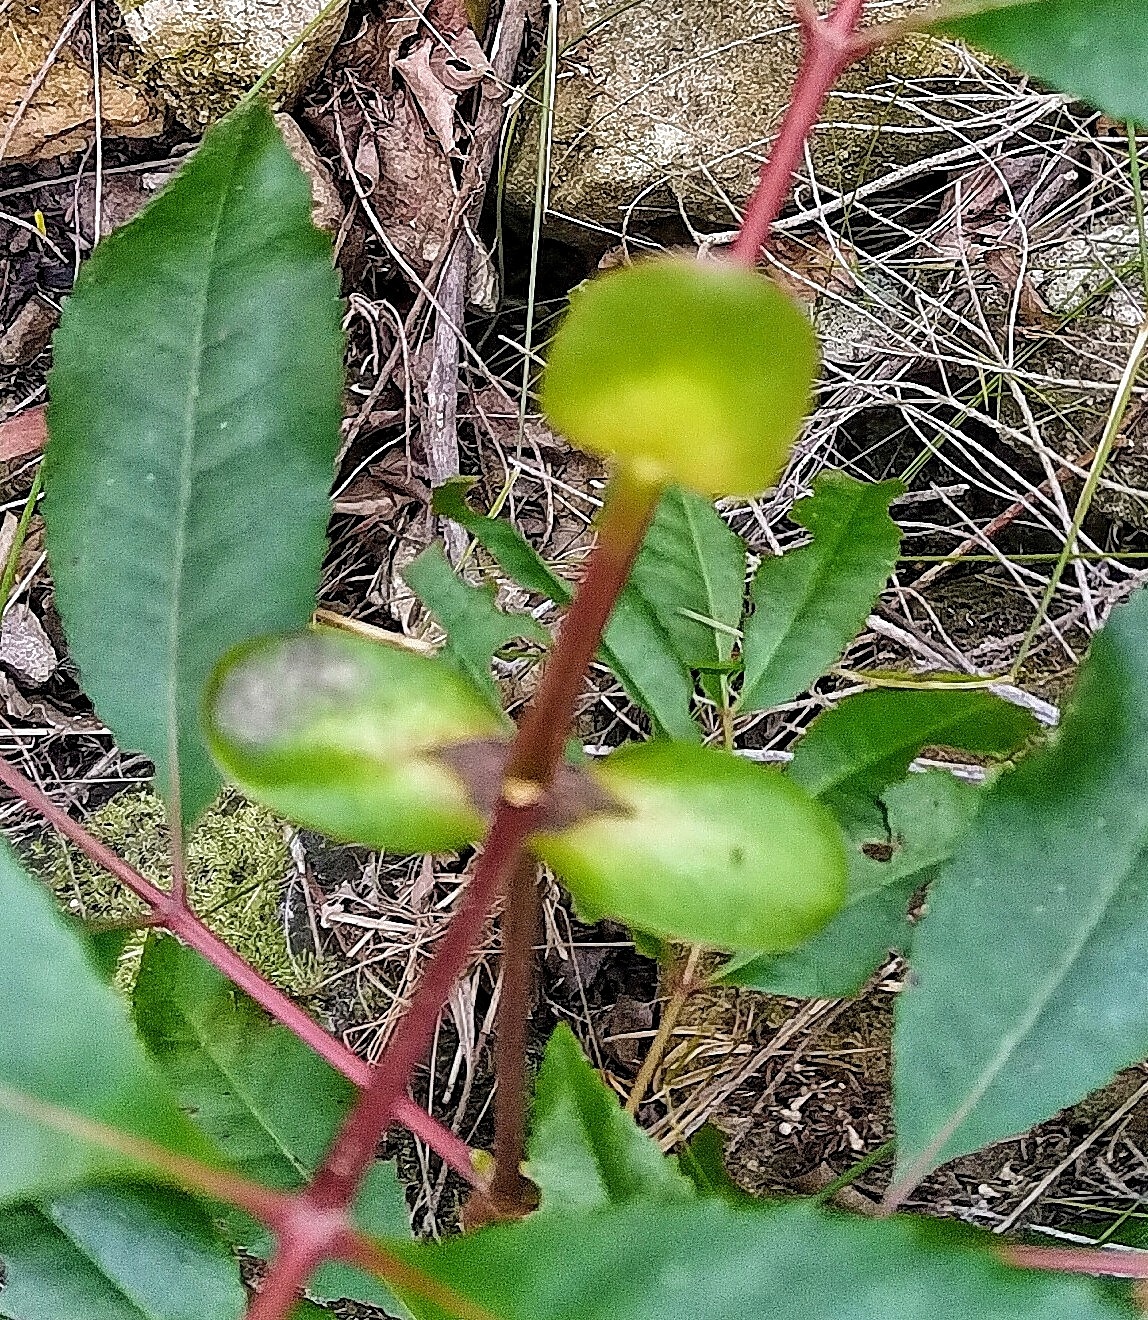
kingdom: Plantae
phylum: Tracheophyta
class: Magnoliopsida
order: Oxalidales
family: Cunoniaceae
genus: Cunonia
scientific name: Cunonia capensis
